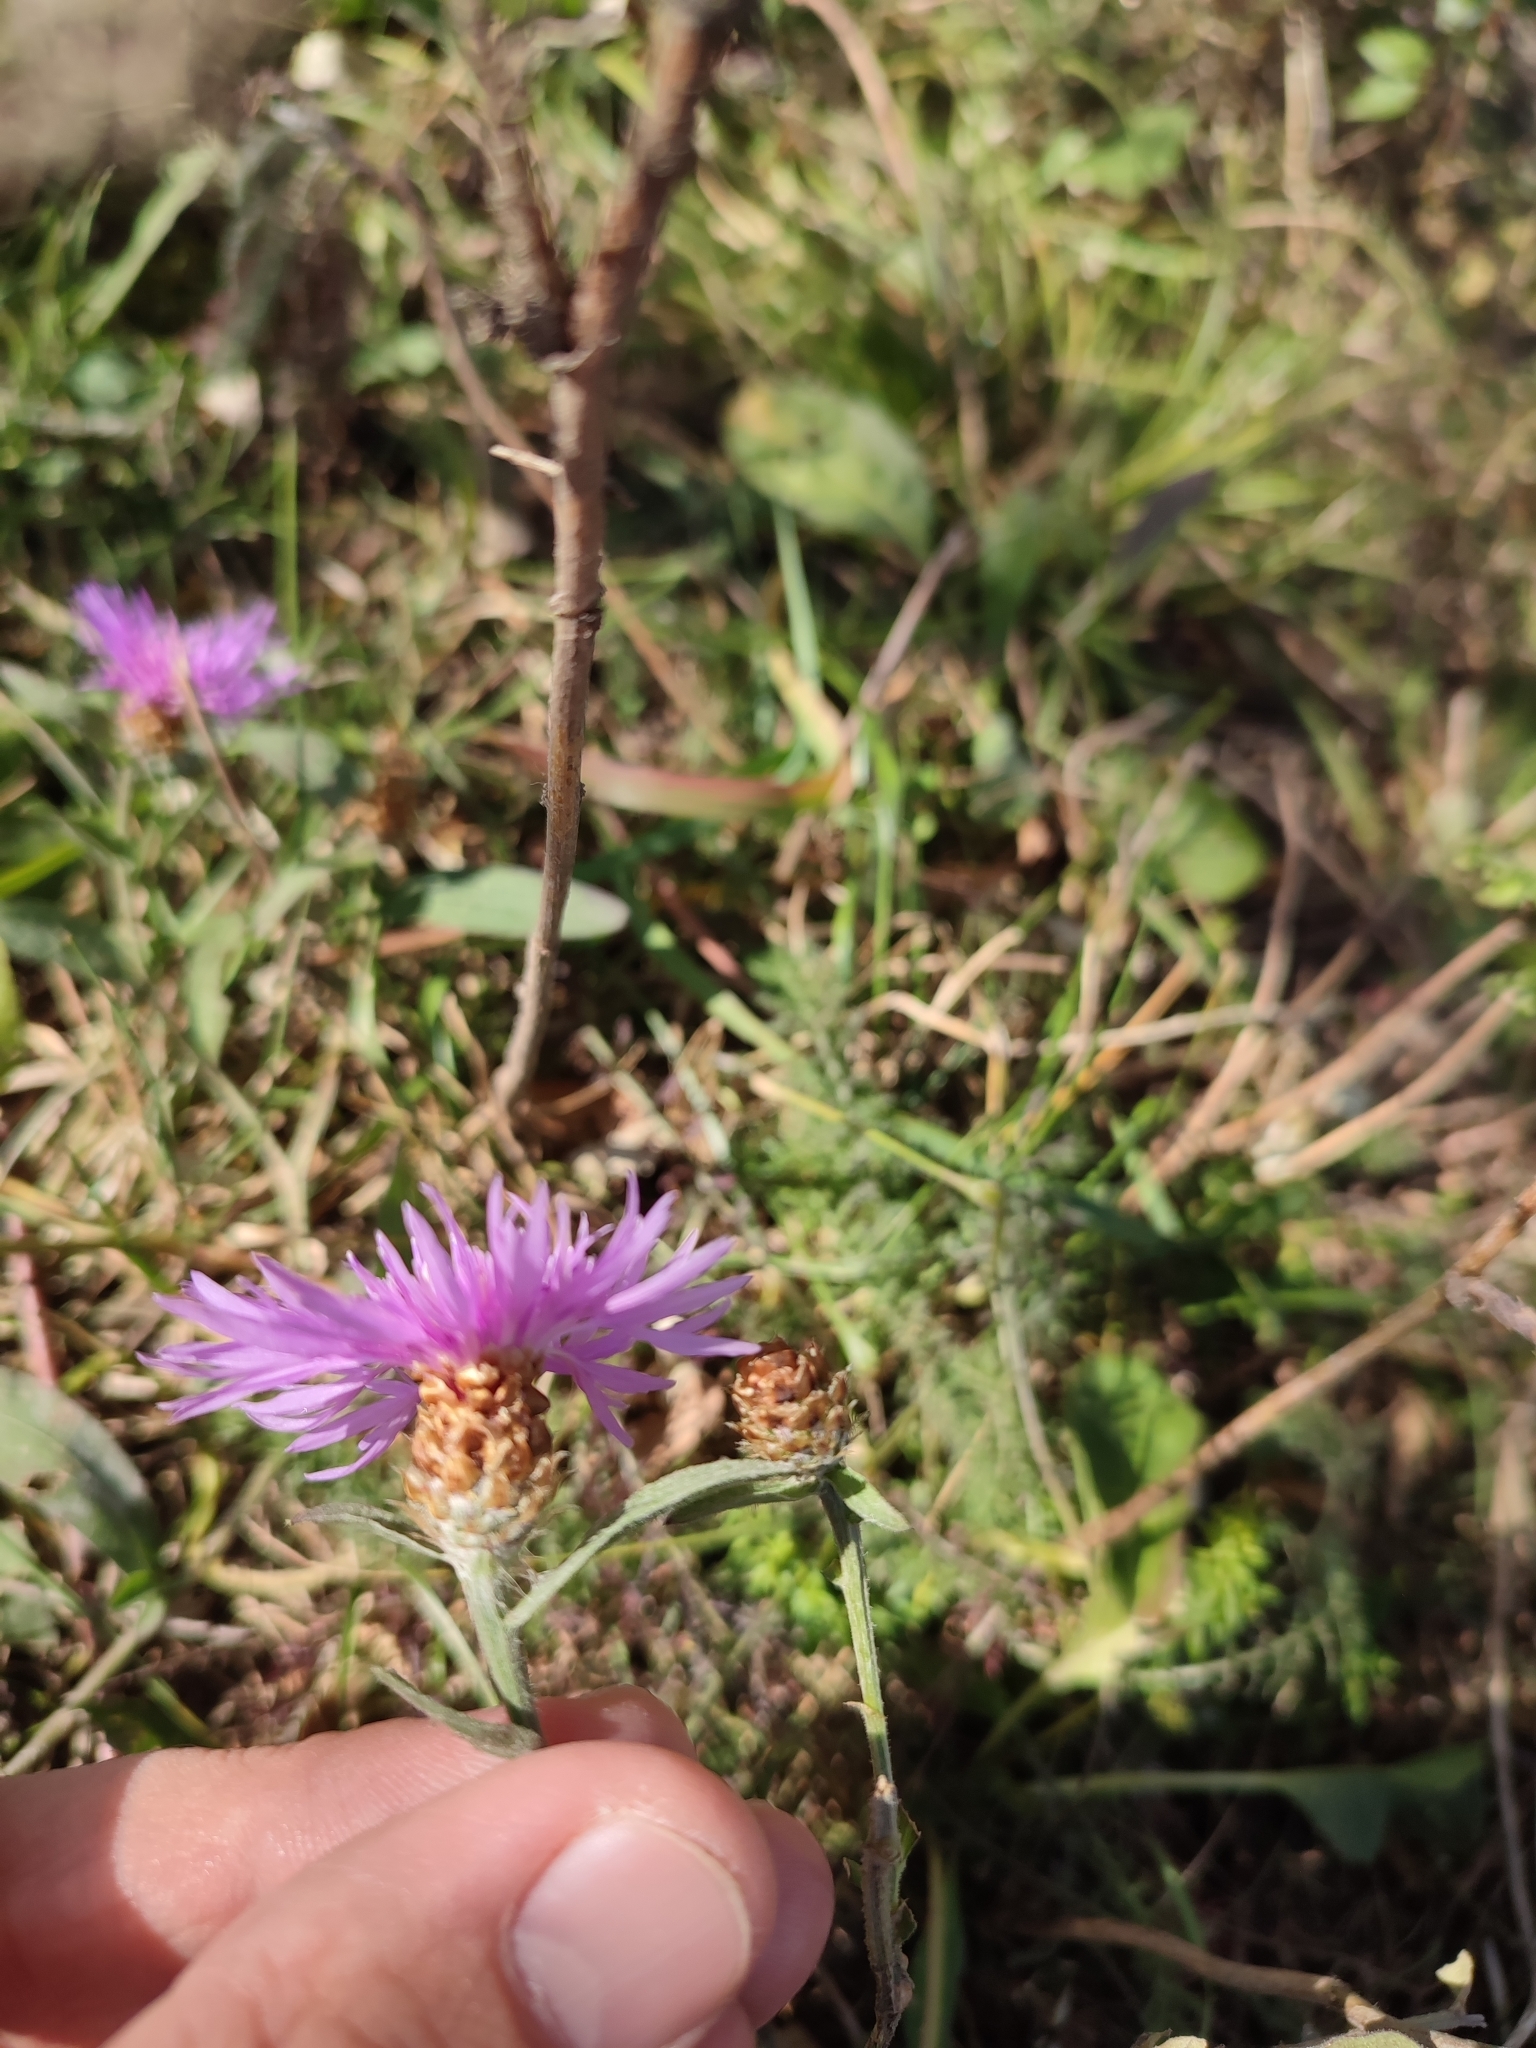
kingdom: Plantae
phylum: Tracheophyta
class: Magnoliopsida
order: Asterales
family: Asteraceae
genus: Centaurea
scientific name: Centaurea jacea
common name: Brown knapweed
